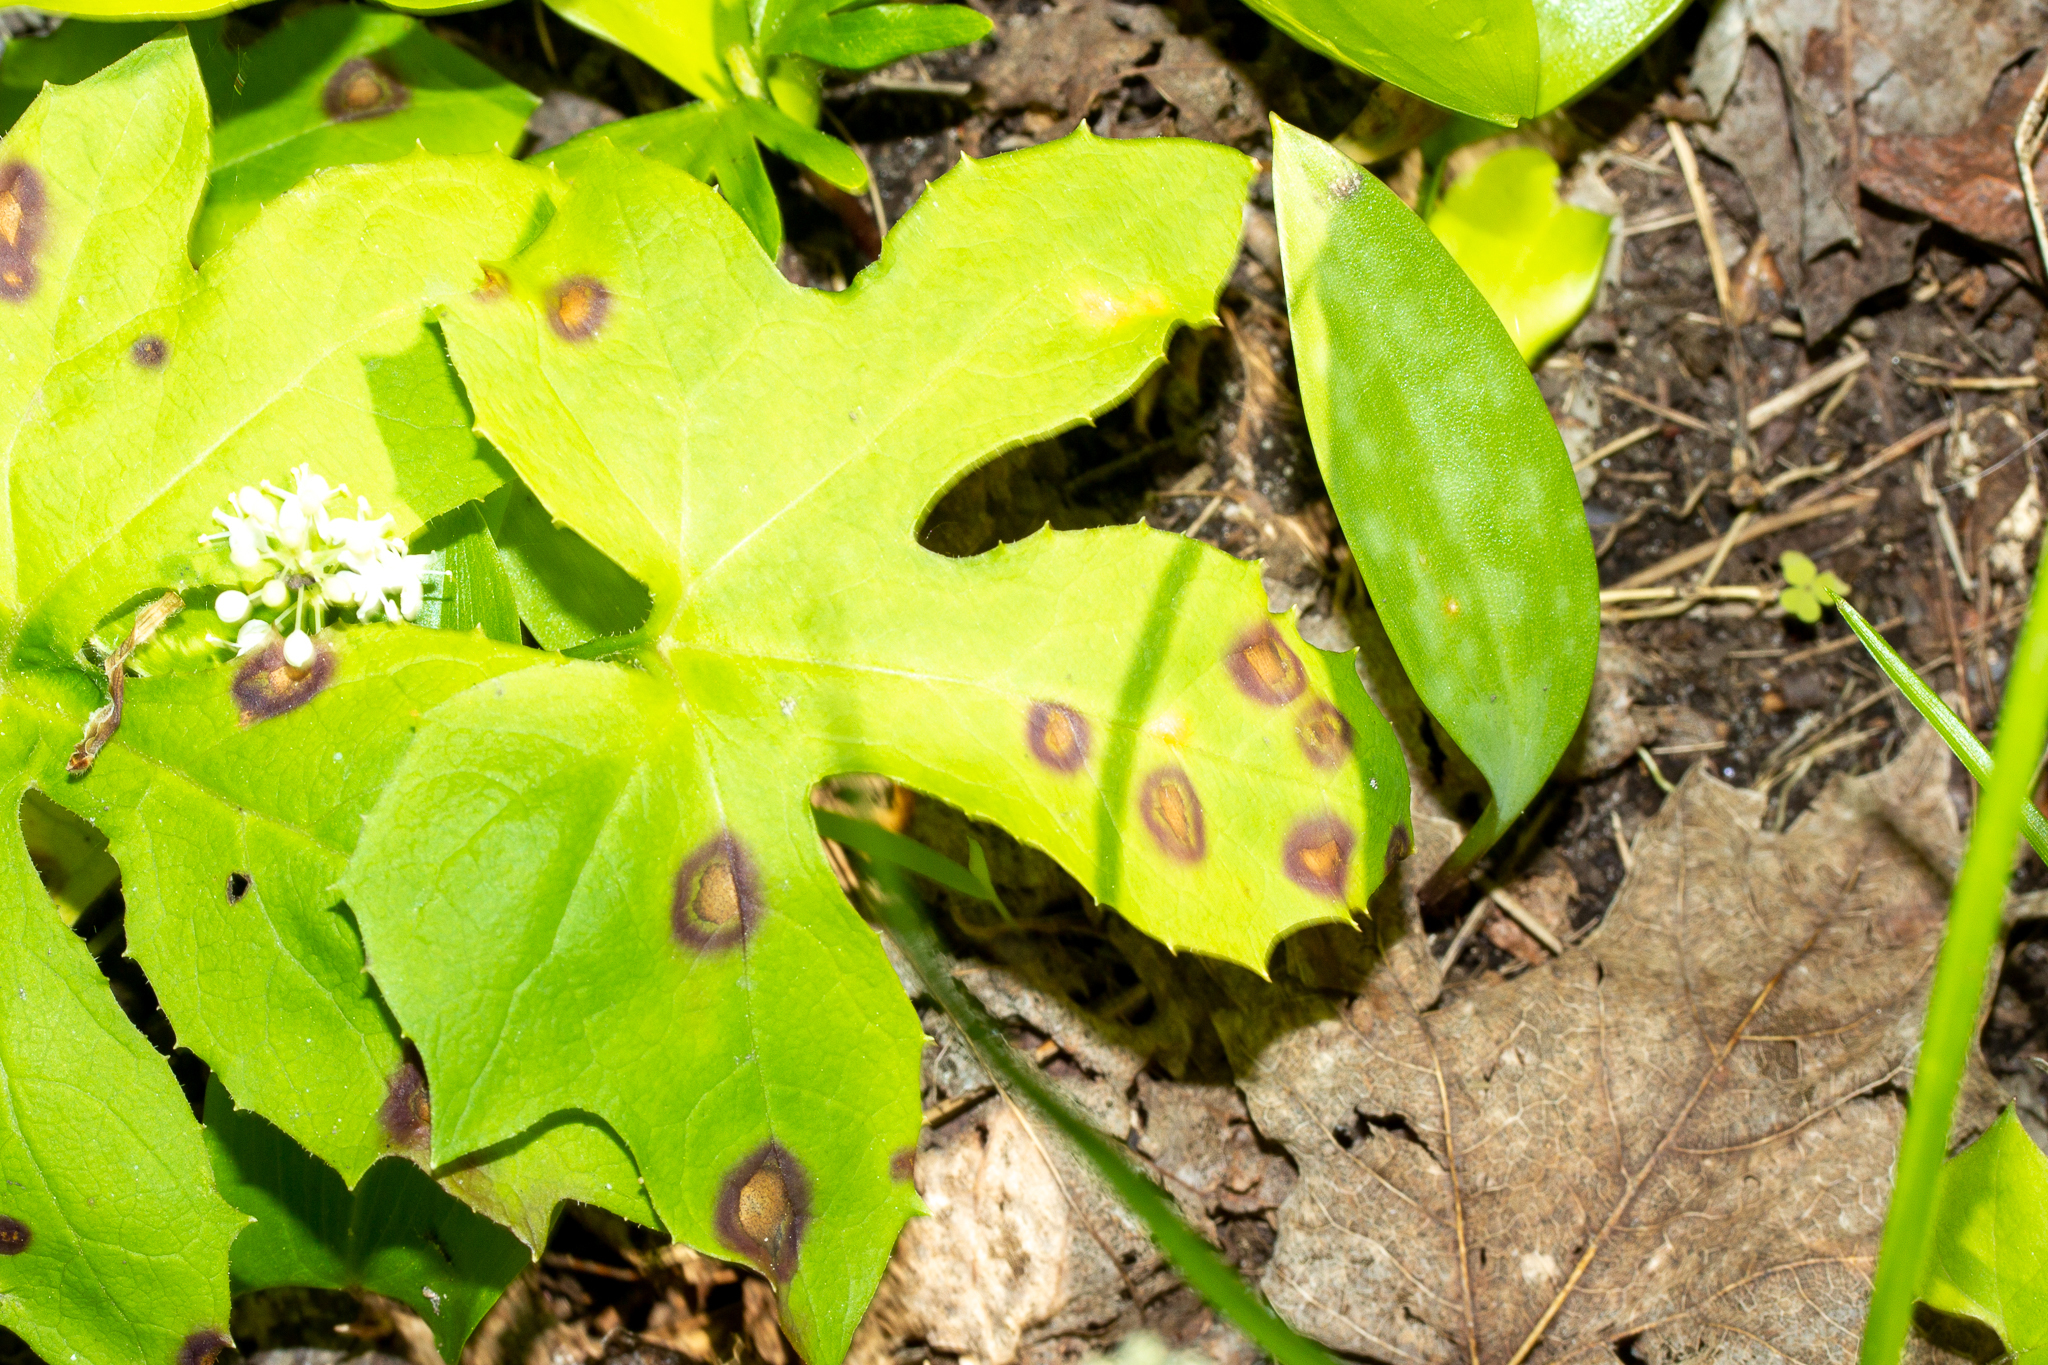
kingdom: Animalia
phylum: Arthropoda
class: Insecta
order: Diptera
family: Cecidomyiidae
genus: Cystiphora
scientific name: Cystiphora canadensis
